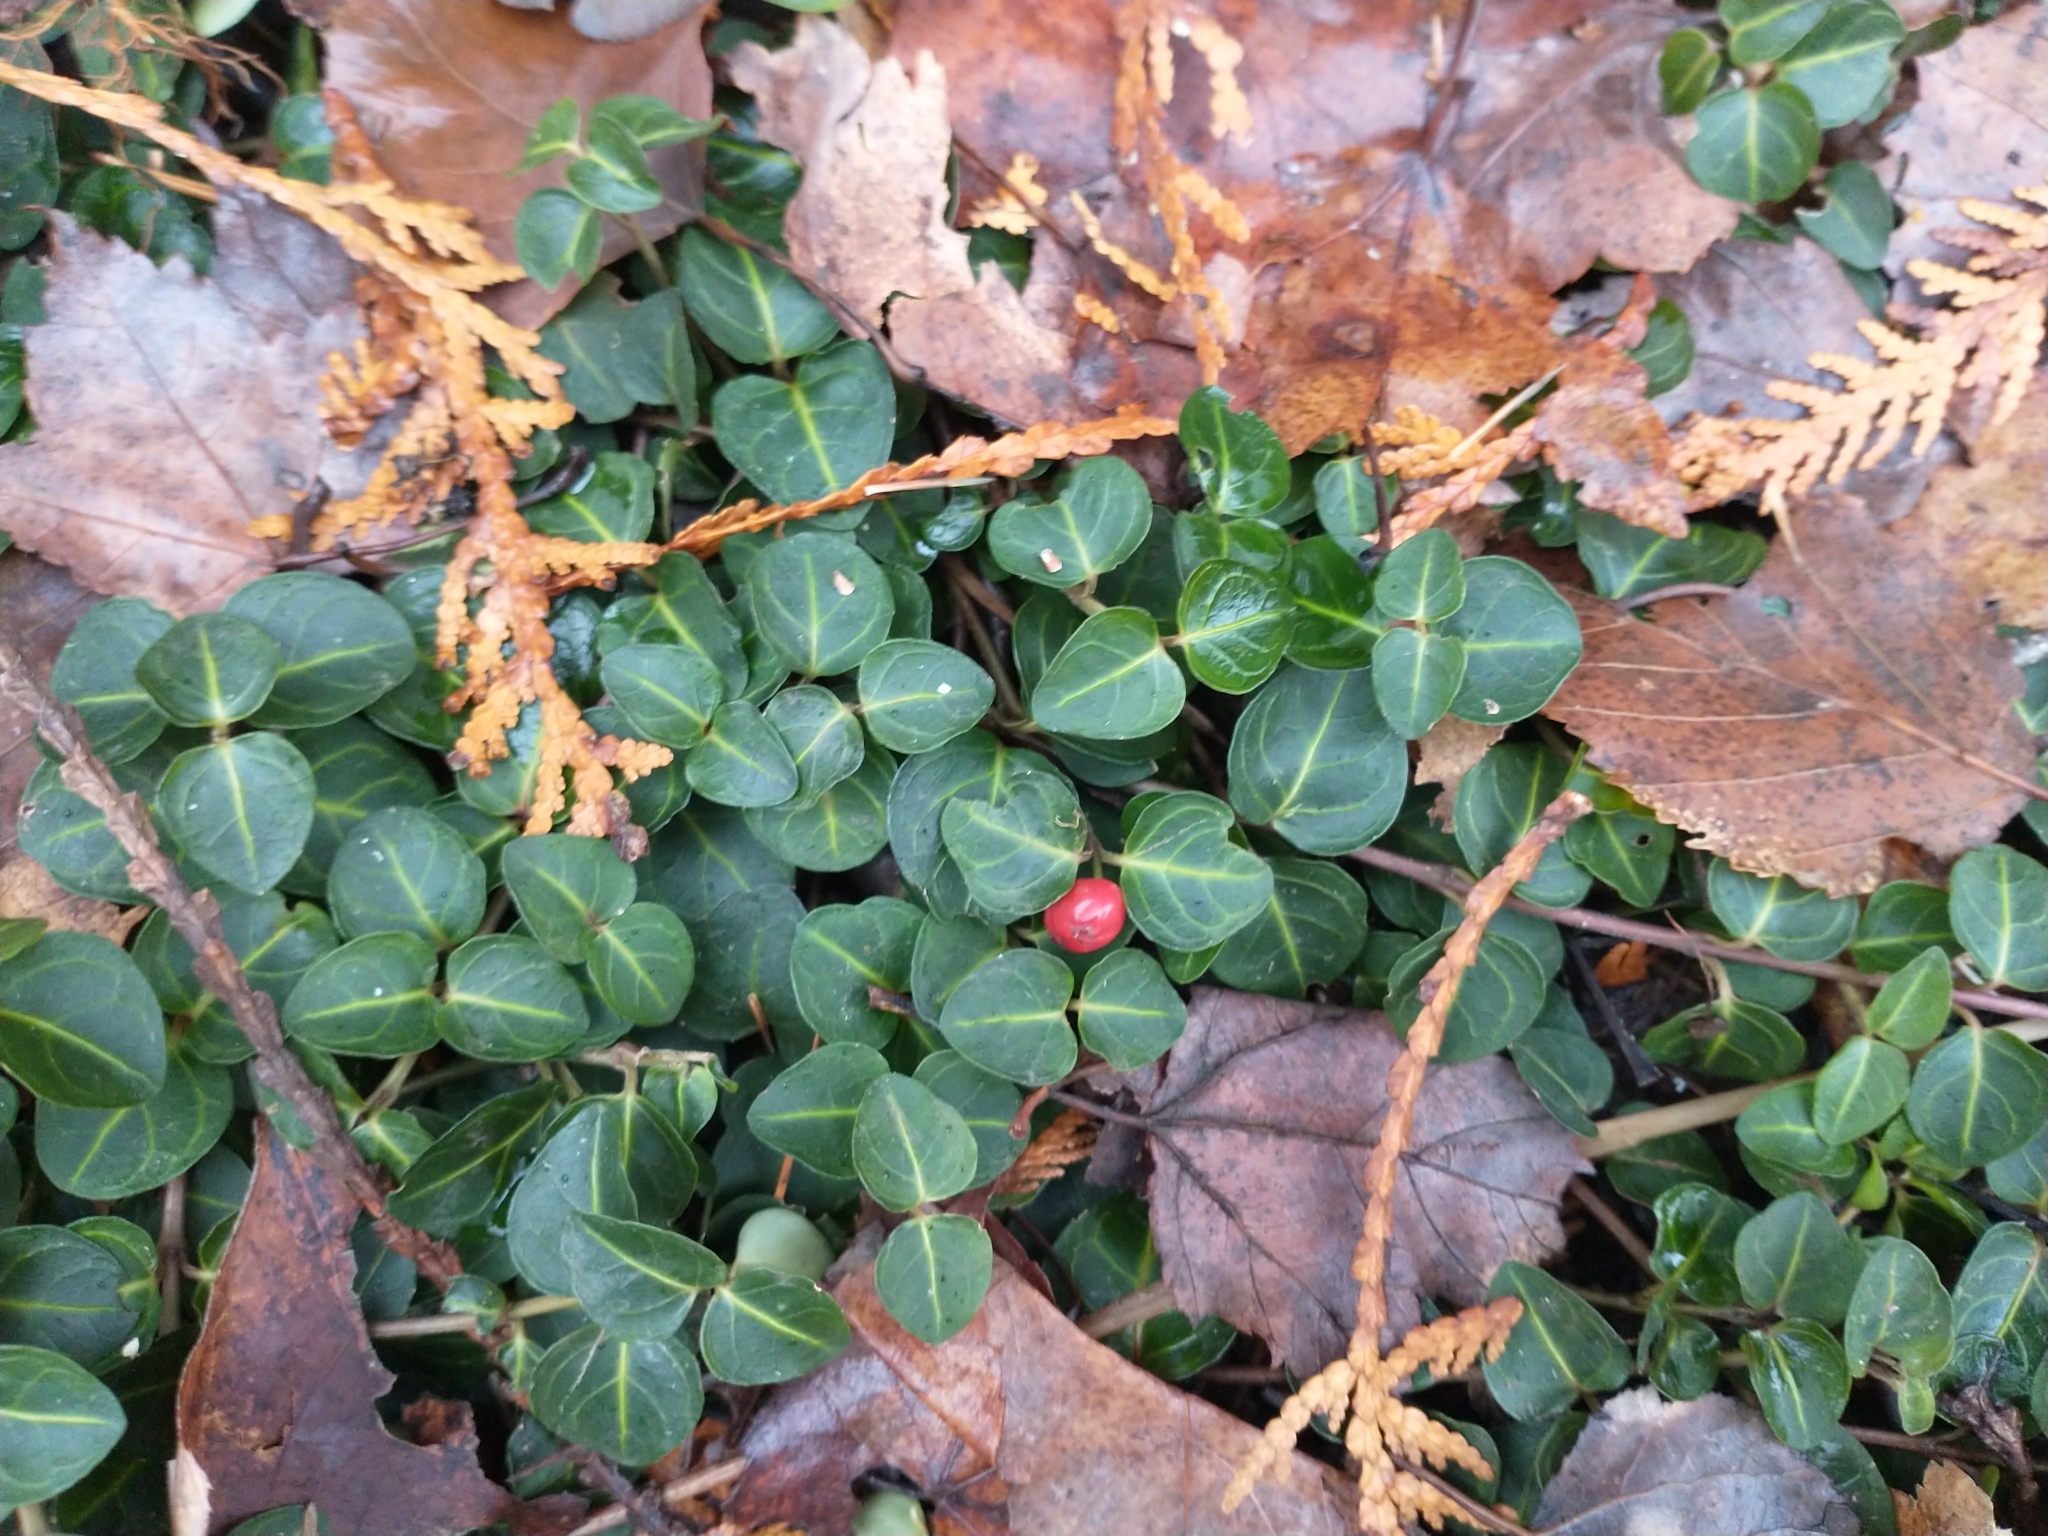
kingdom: Plantae
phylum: Tracheophyta
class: Magnoliopsida
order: Gentianales
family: Rubiaceae
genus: Mitchella
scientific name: Mitchella repens
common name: Partridge-berry
